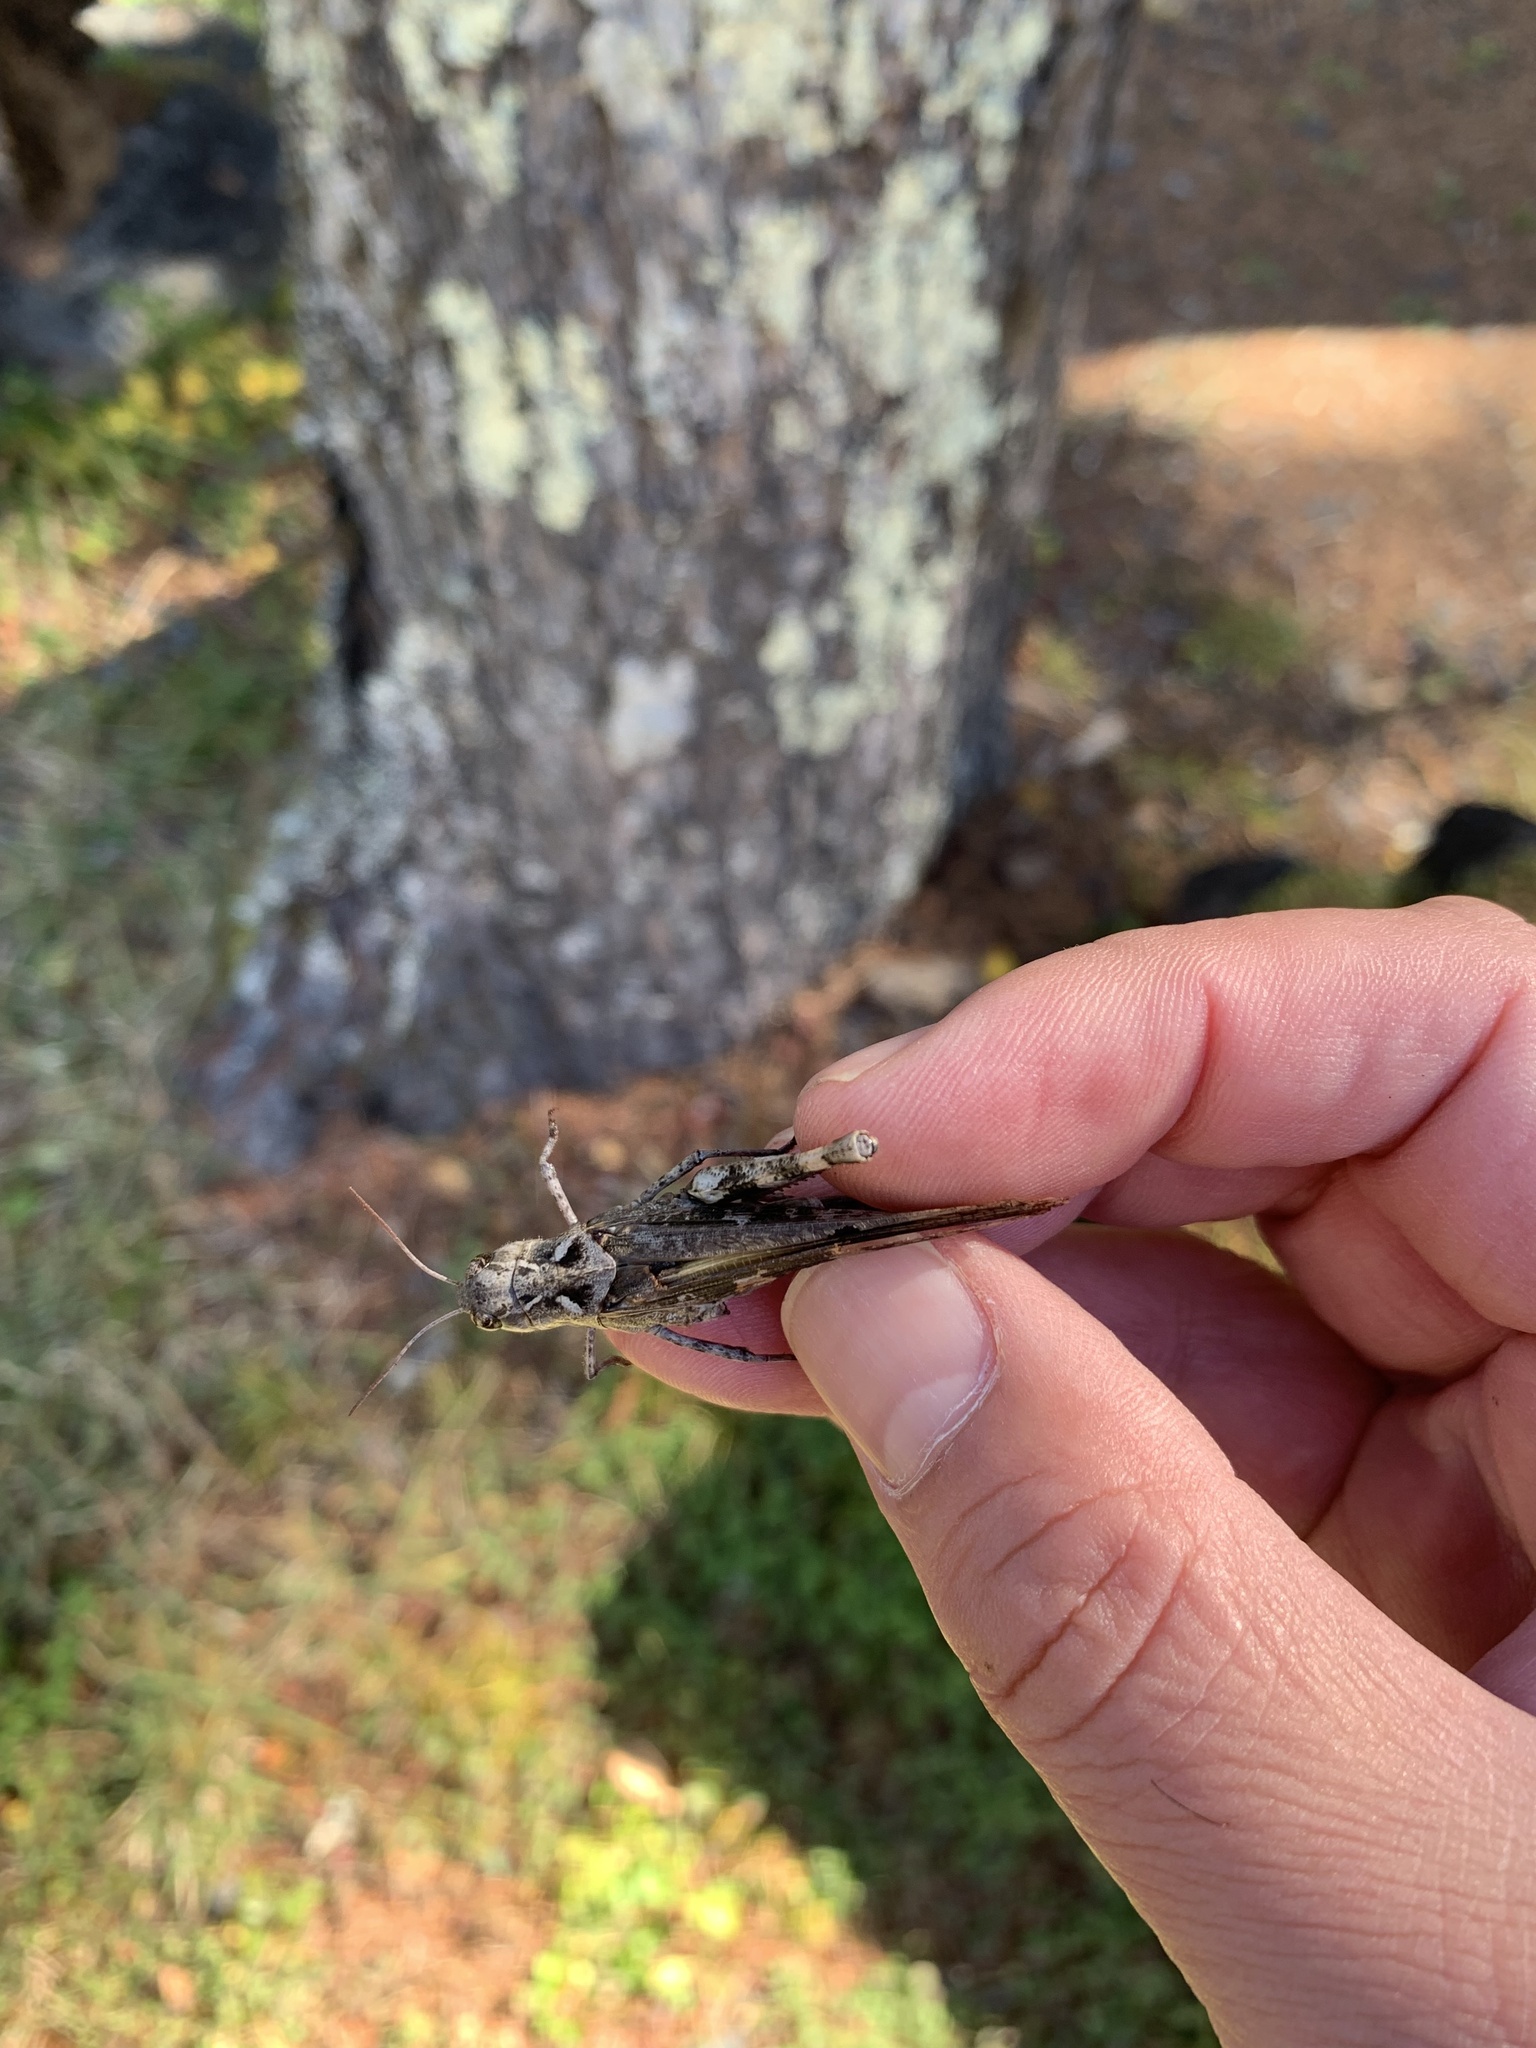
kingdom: Animalia
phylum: Arthropoda
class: Insecta
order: Orthoptera
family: Acrididae
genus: Oedaleus
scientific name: Oedaleus infernalis
